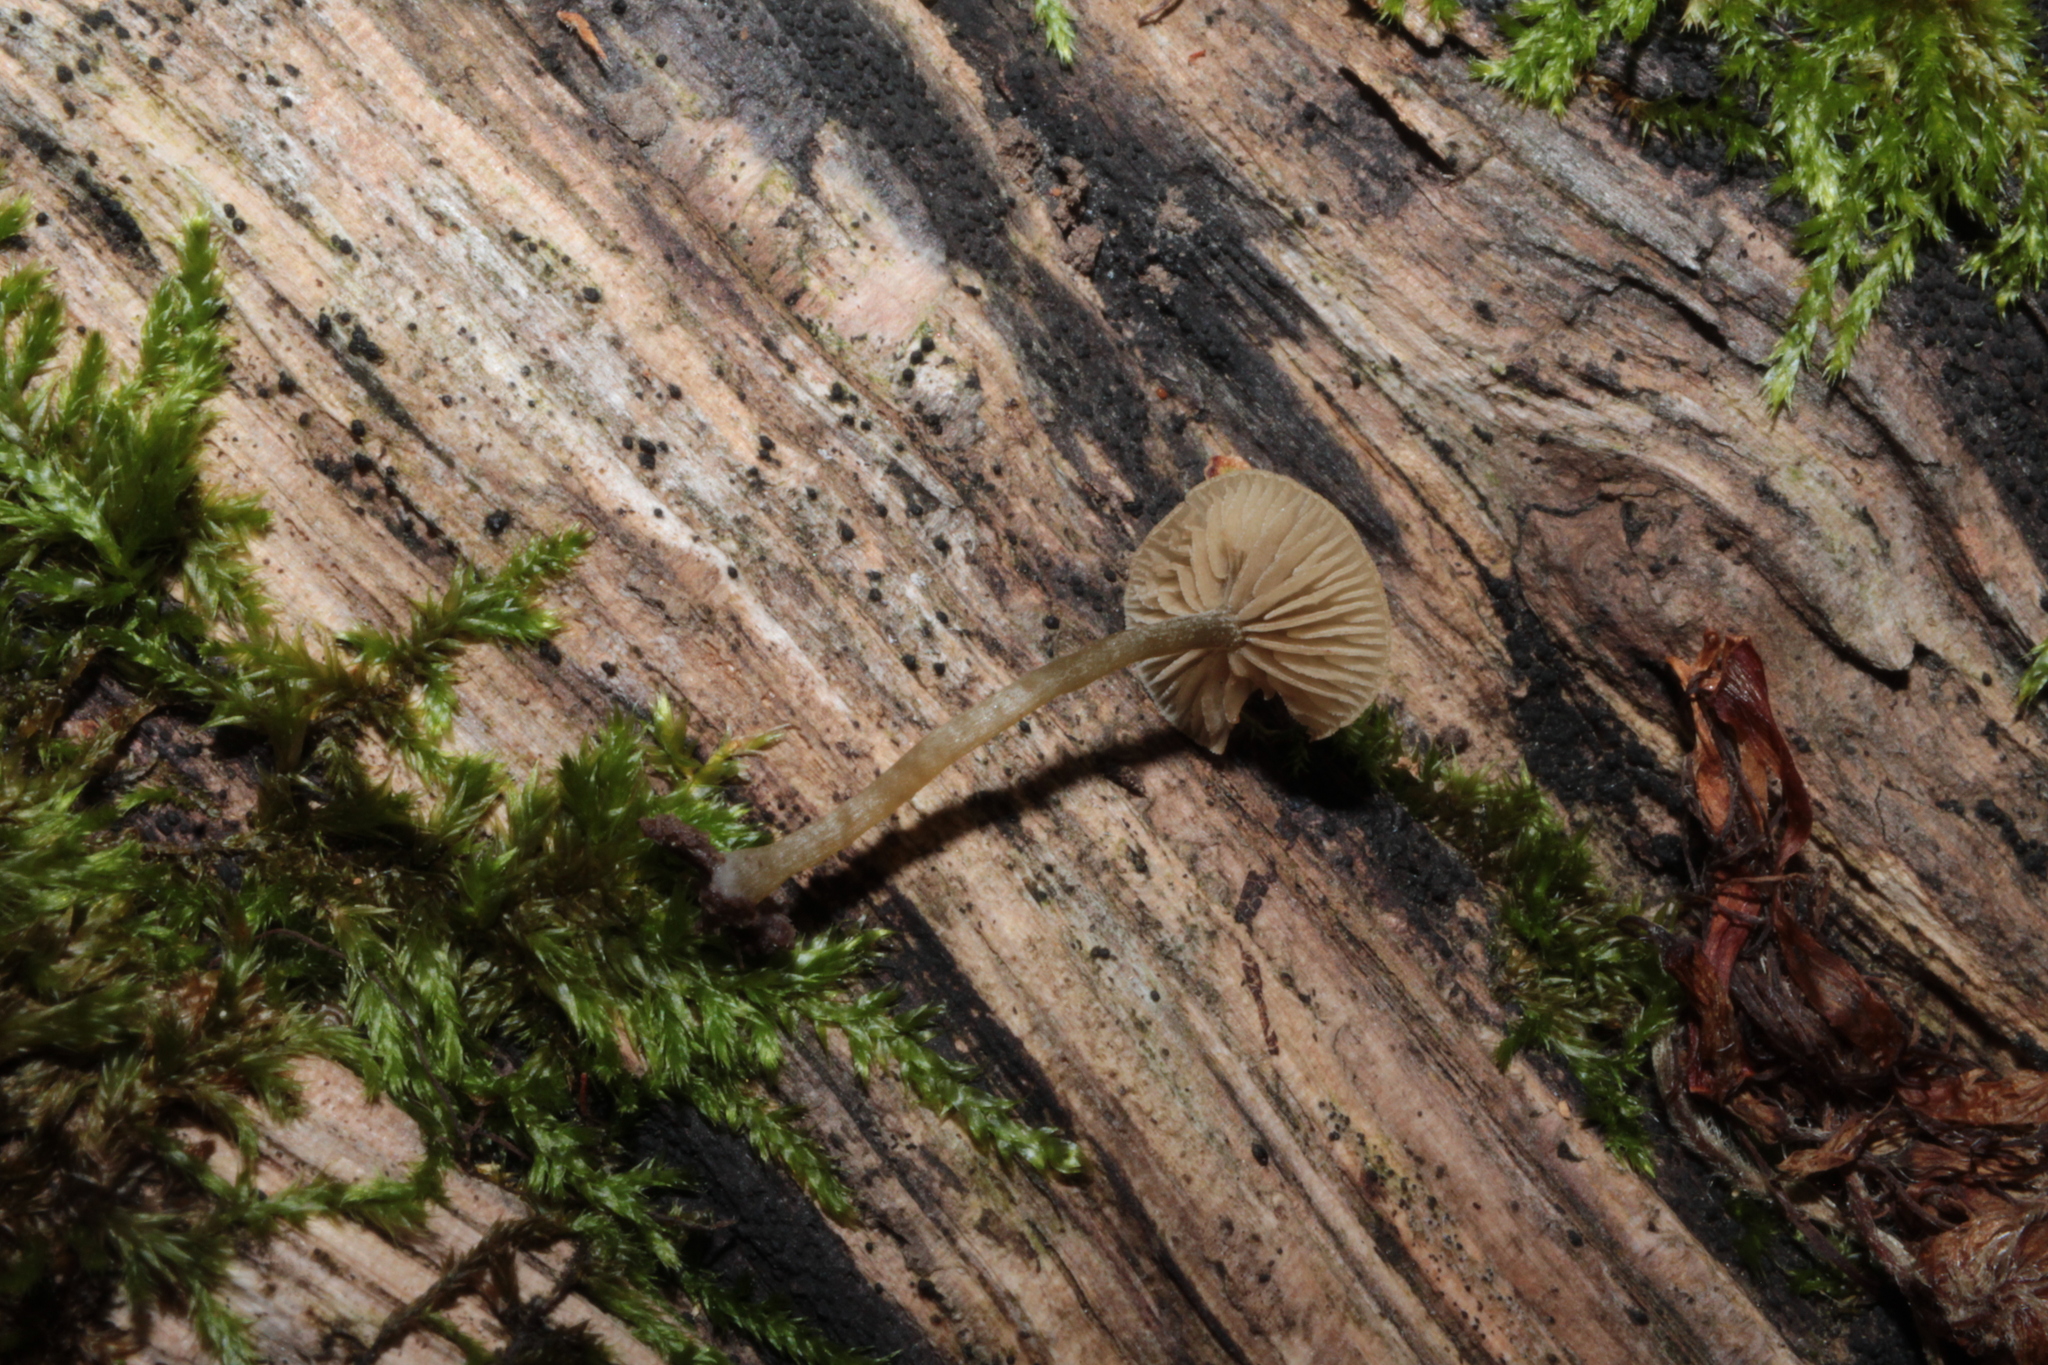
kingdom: Fungi
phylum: Basidiomycota
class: Agaricomycetes
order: Agaricales
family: Crepidotaceae
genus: Simocybe
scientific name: Simocybe centunculus
